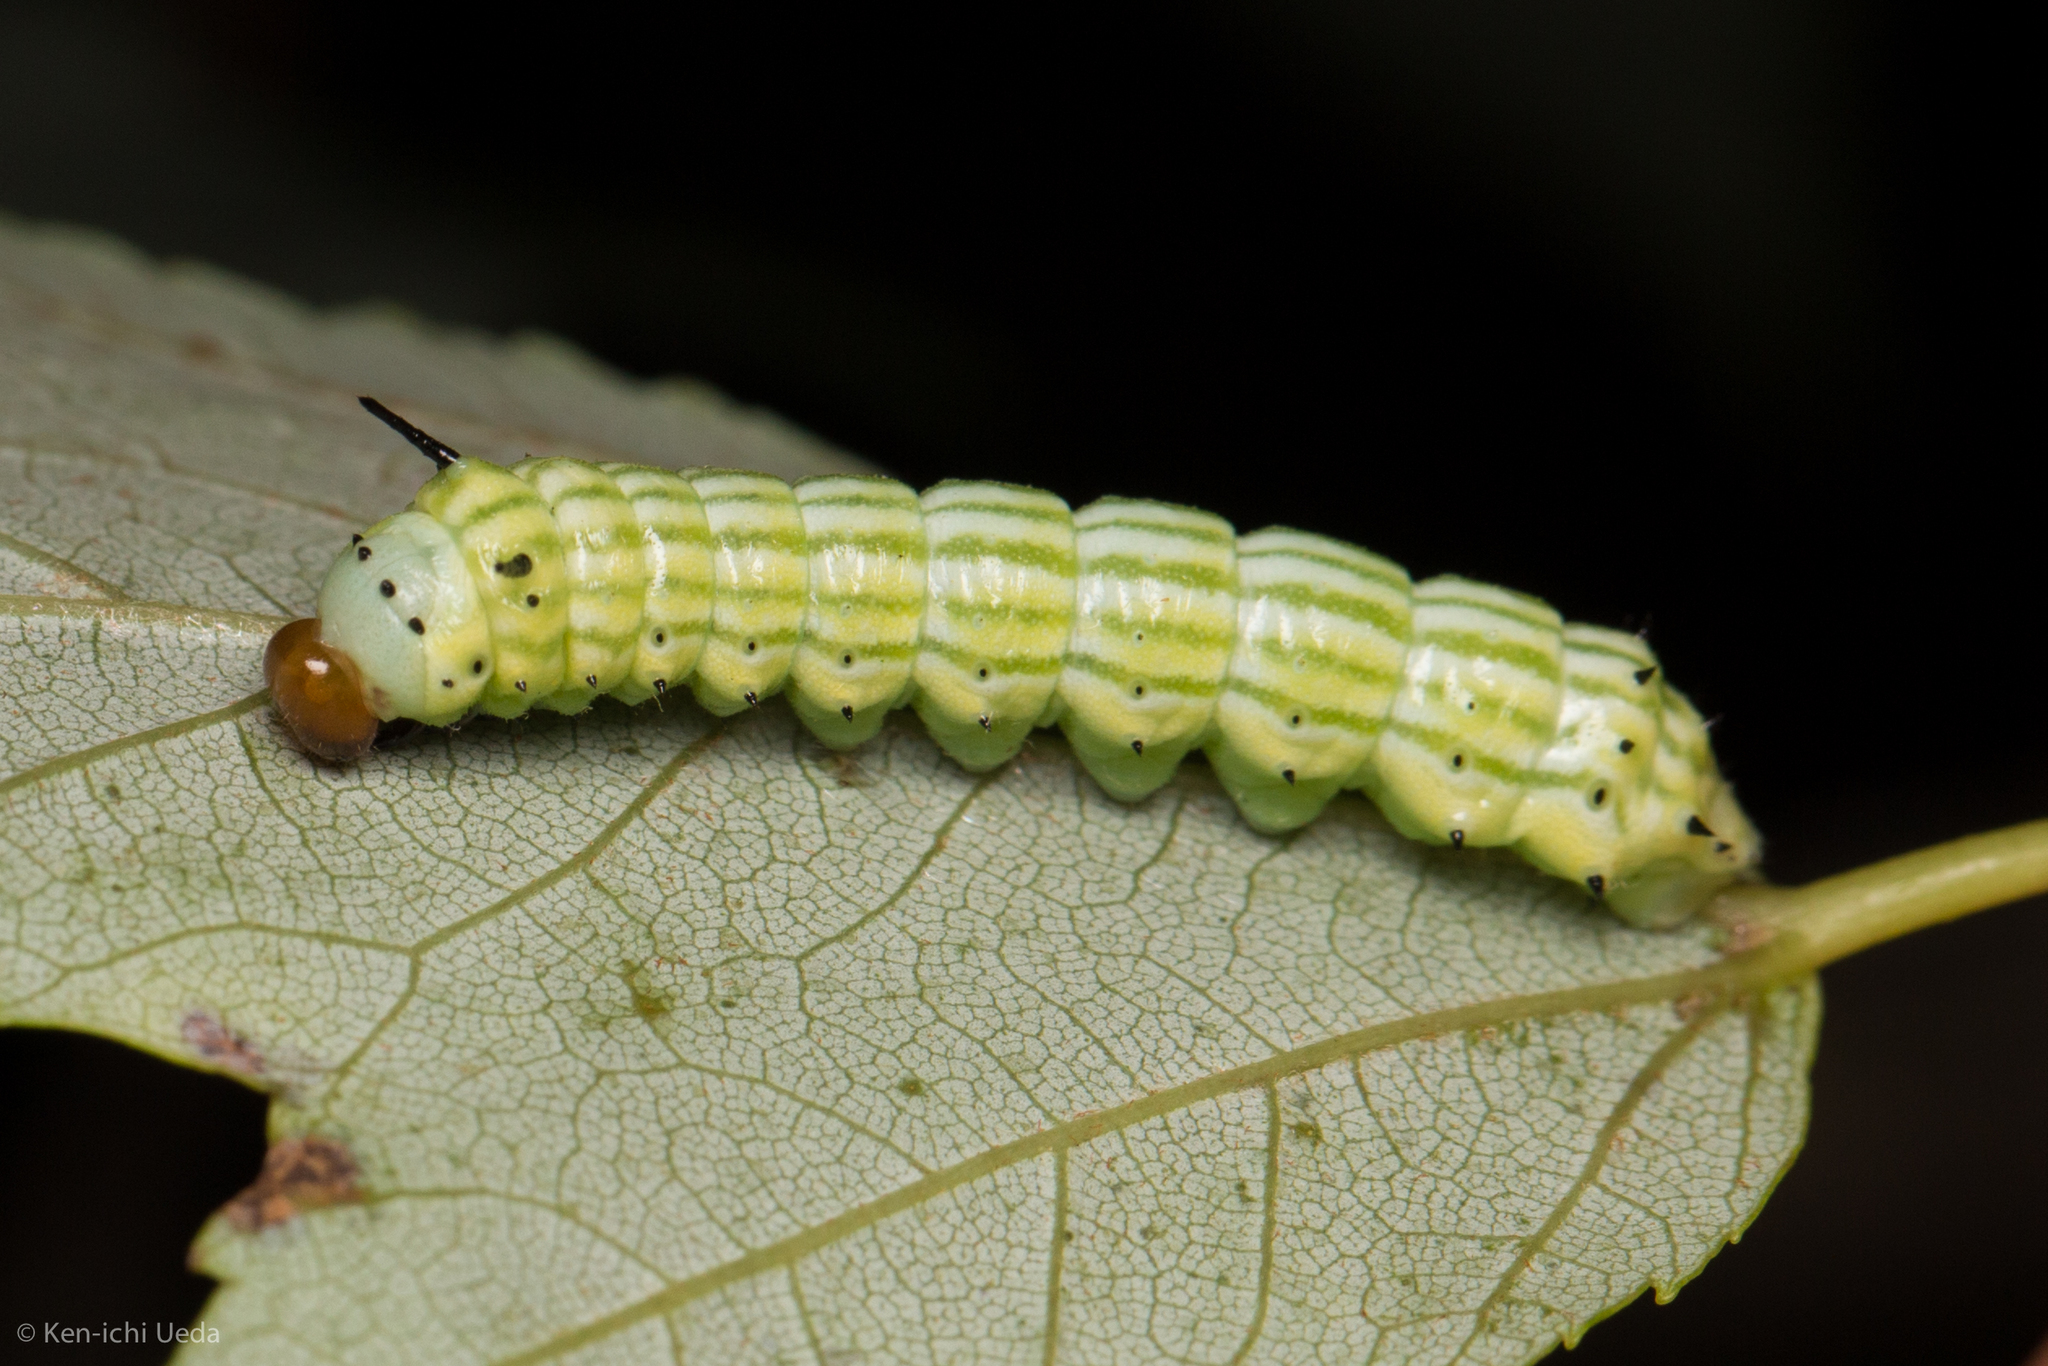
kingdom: Animalia
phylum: Arthropoda
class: Insecta
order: Lepidoptera
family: Saturniidae
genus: Dryocampa
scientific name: Dryocampa rubicunda
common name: Rosy maple moth
